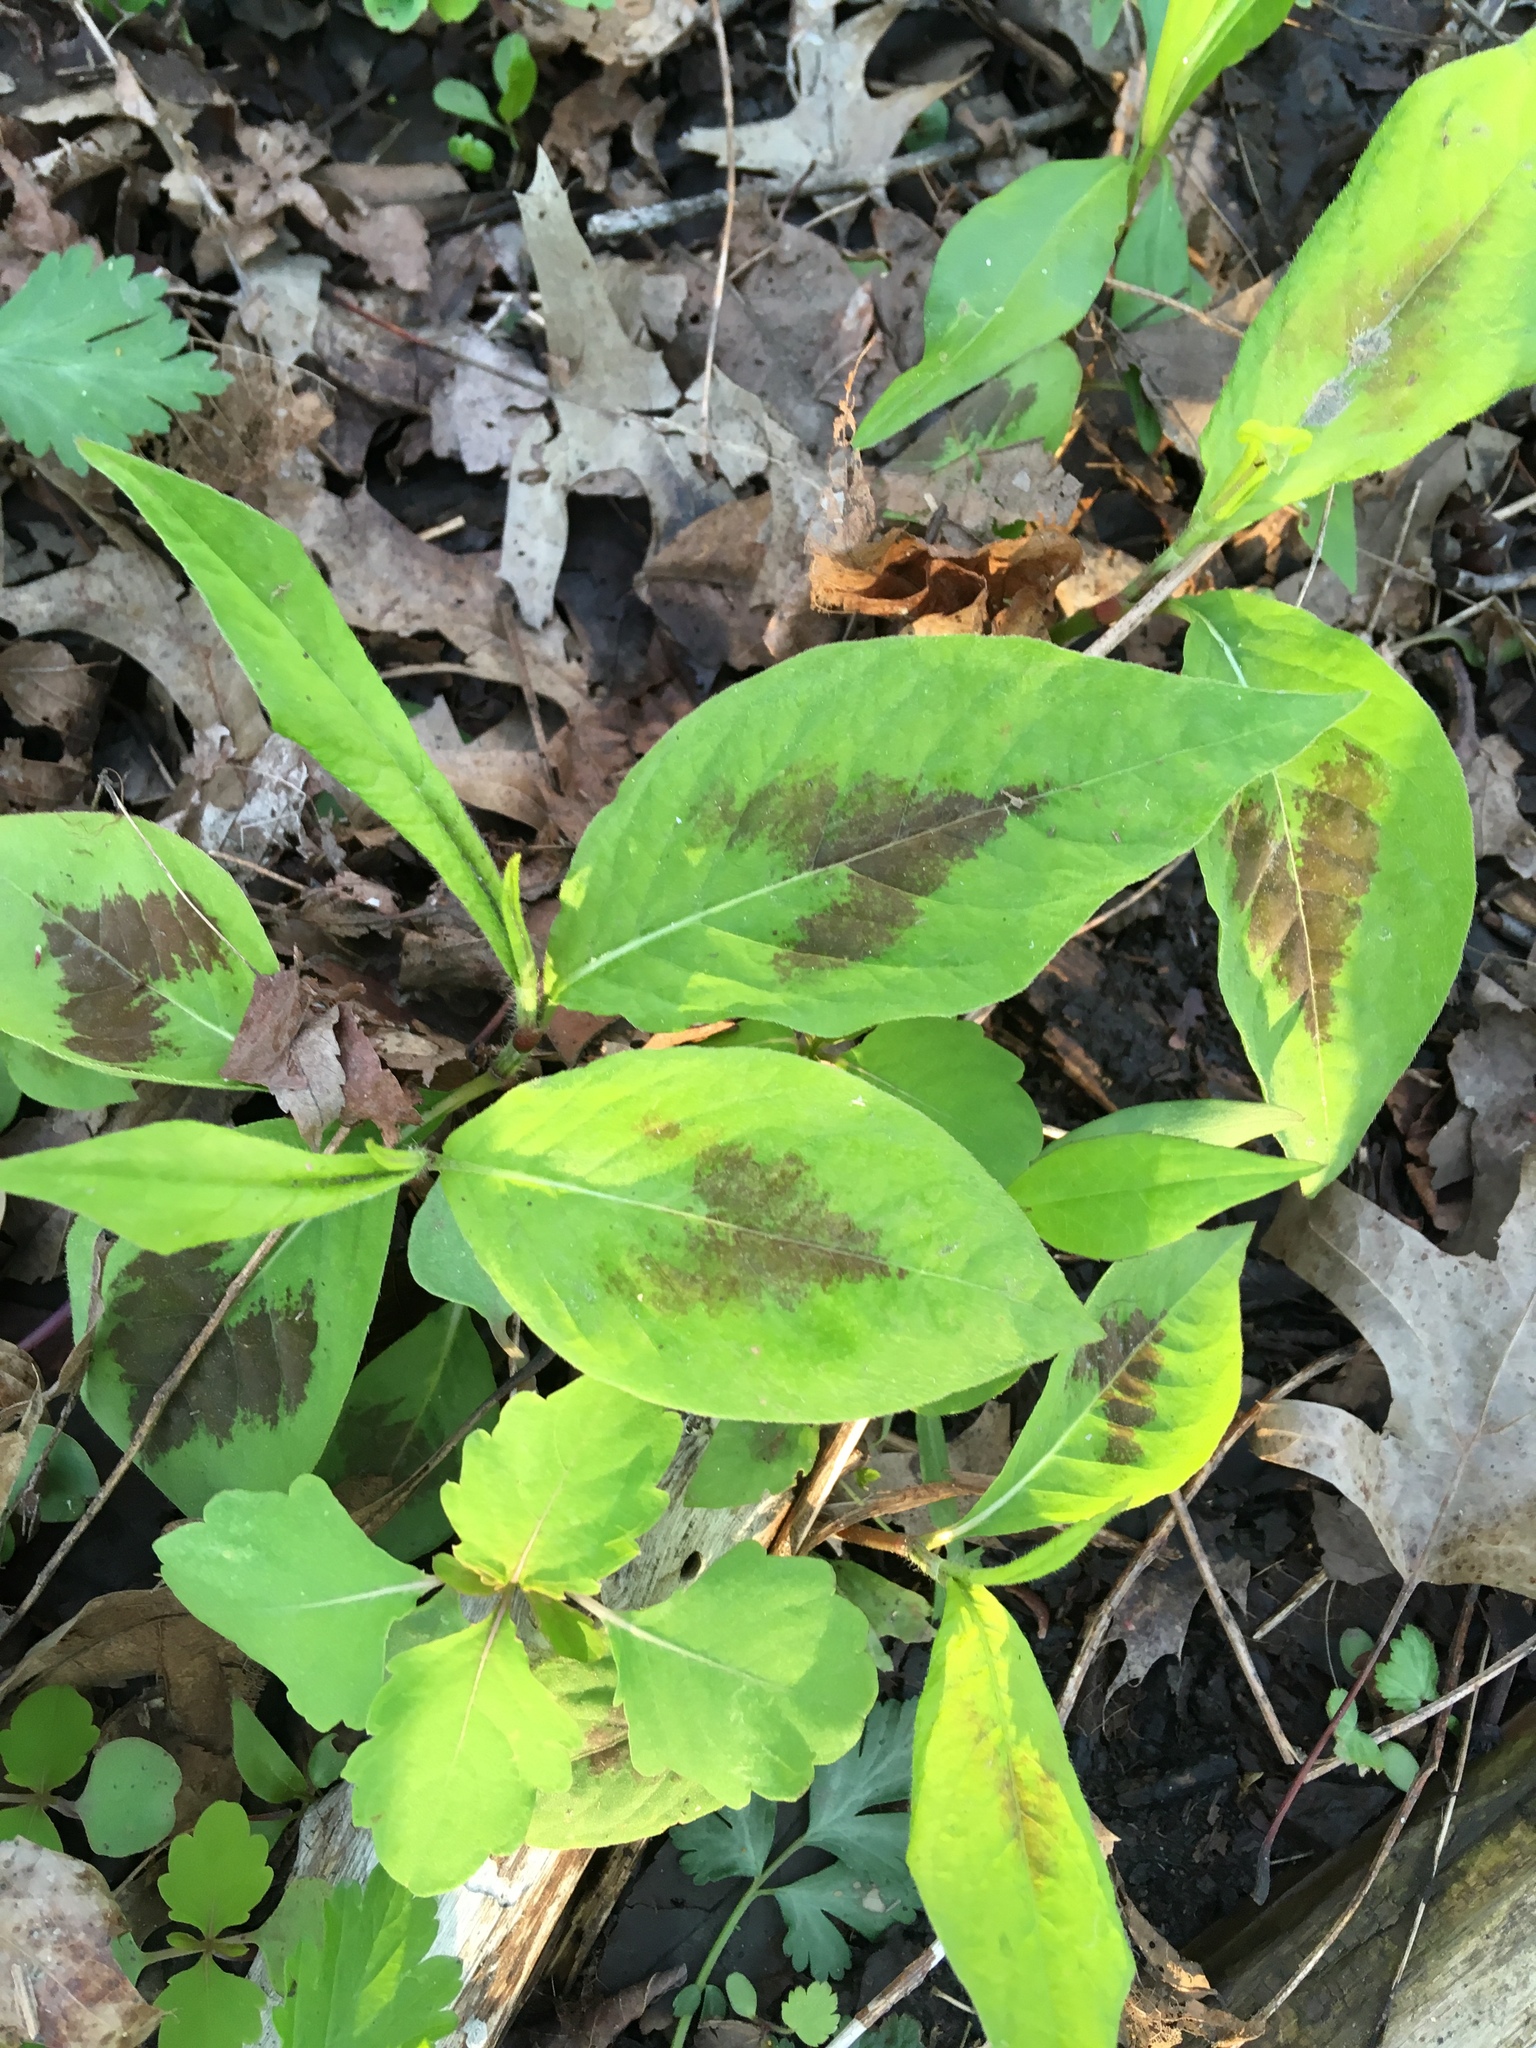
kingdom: Plantae
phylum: Tracheophyta
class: Magnoliopsida
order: Caryophyllales
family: Polygonaceae
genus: Persicaria
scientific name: Persicaria virginiana
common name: Jumpseed
